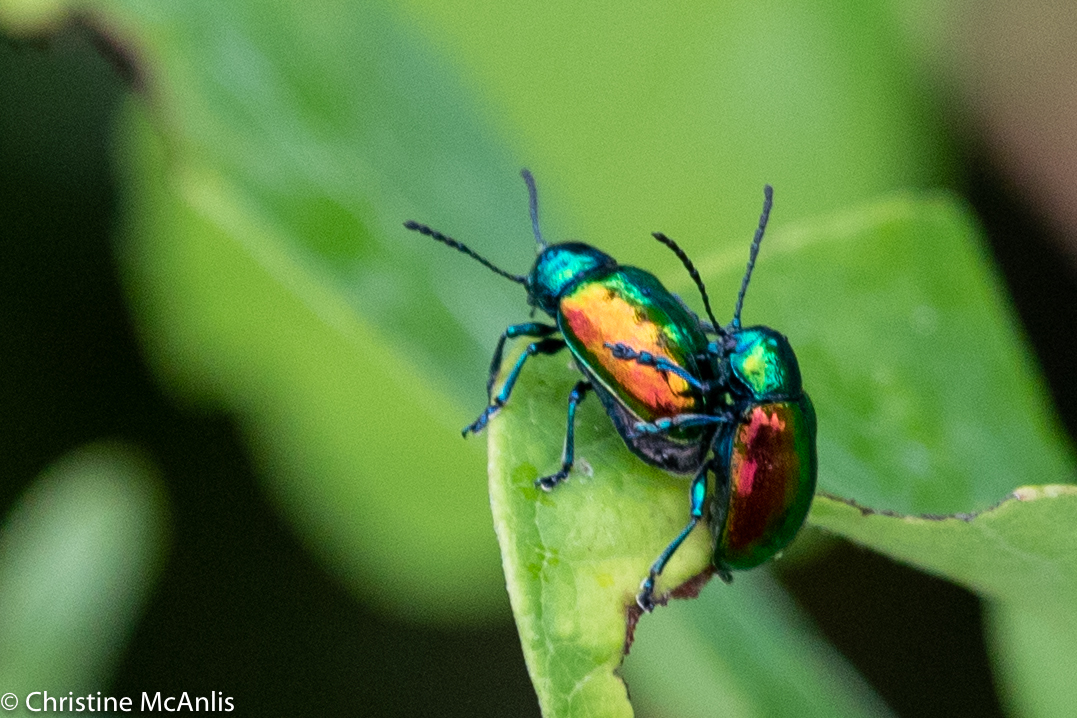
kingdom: Animalia
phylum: Arthropoda
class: Insecta
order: Coleoptera
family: Chrysomelidae
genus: Chrysochus
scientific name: Chrysochus auratus
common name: Dogbane leaf beetle
